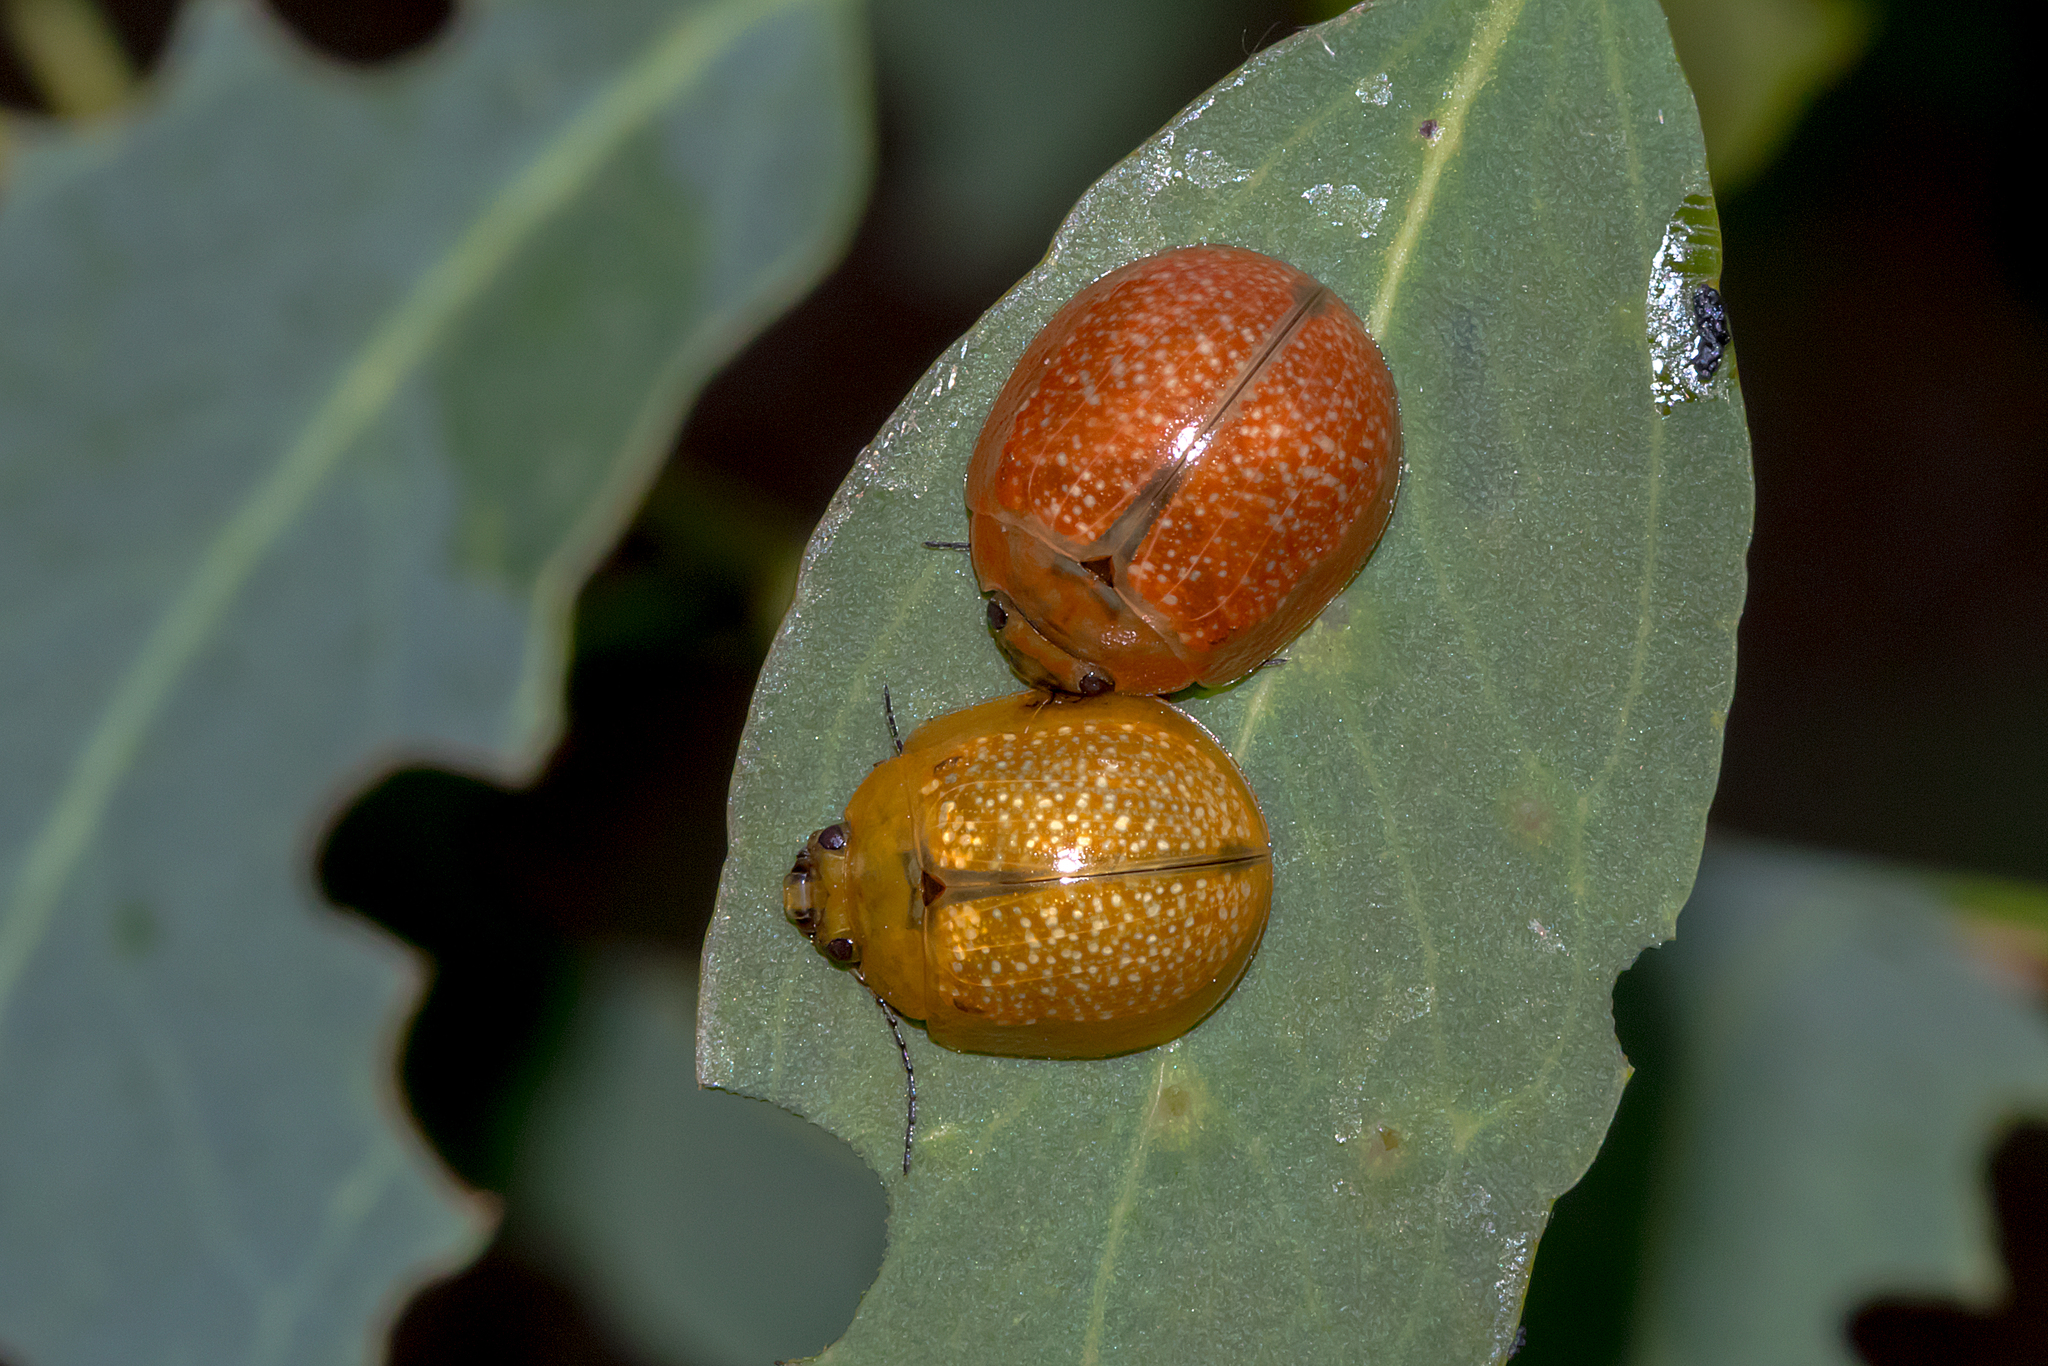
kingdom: Animalia
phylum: Arthropoda
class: Insecta
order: Coleoptera
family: Chrysomelidae
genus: Paropsisterna
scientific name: Paropsisterna cloelia
